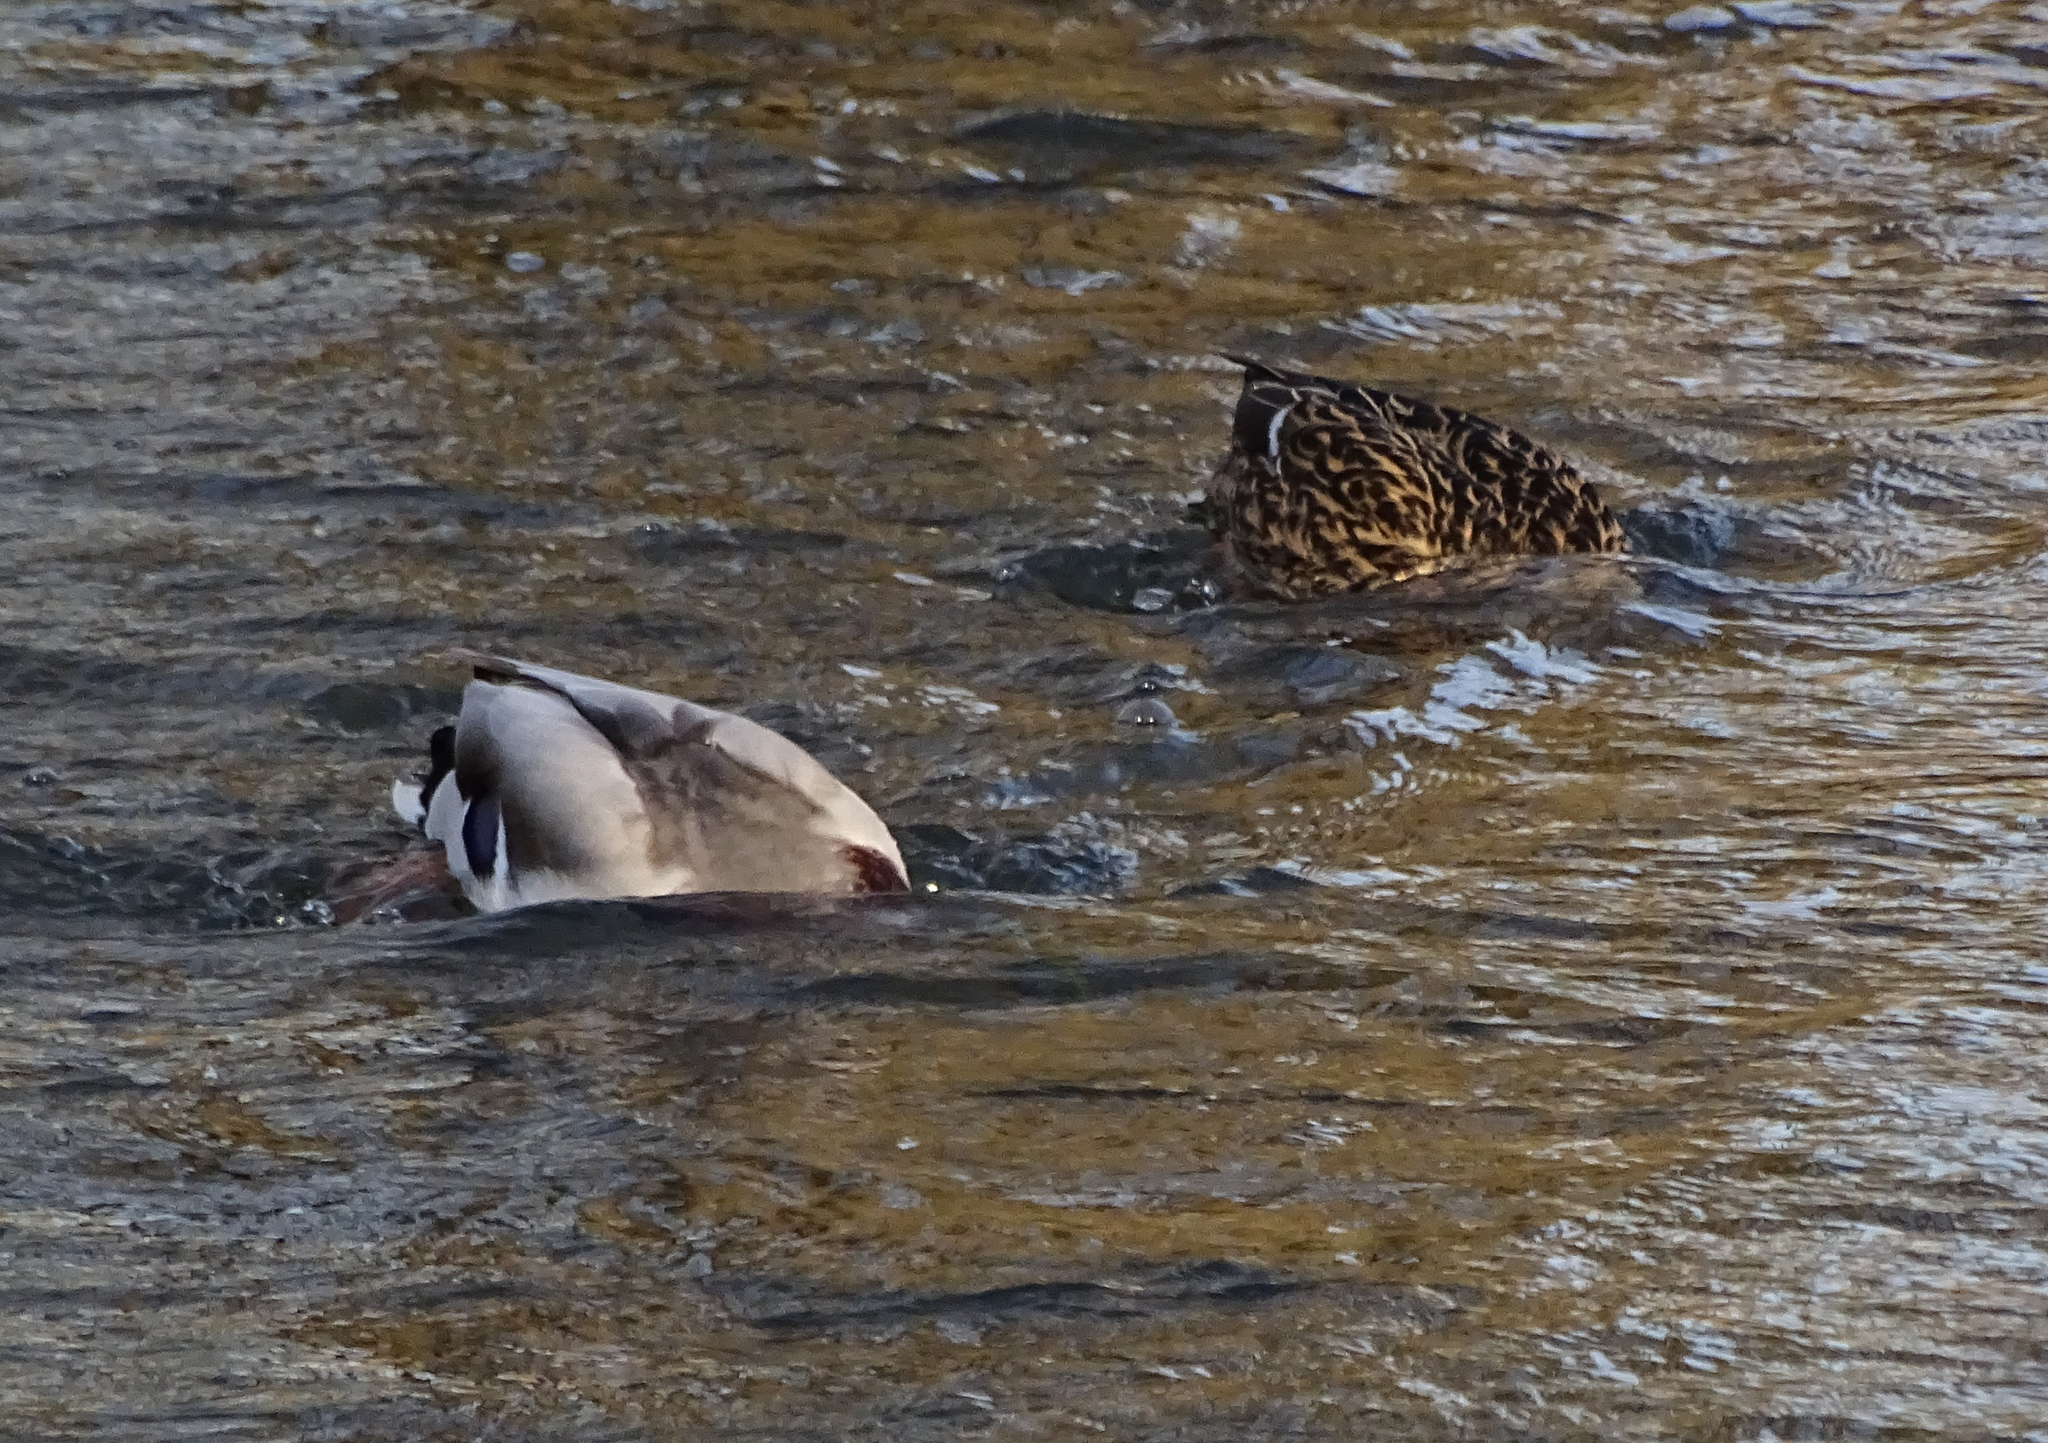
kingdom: Animalia
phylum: Chordata
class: Aves
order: Anseriformes
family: Anatidae
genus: Anas
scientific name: Anas platyrhynchos
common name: Mallard
